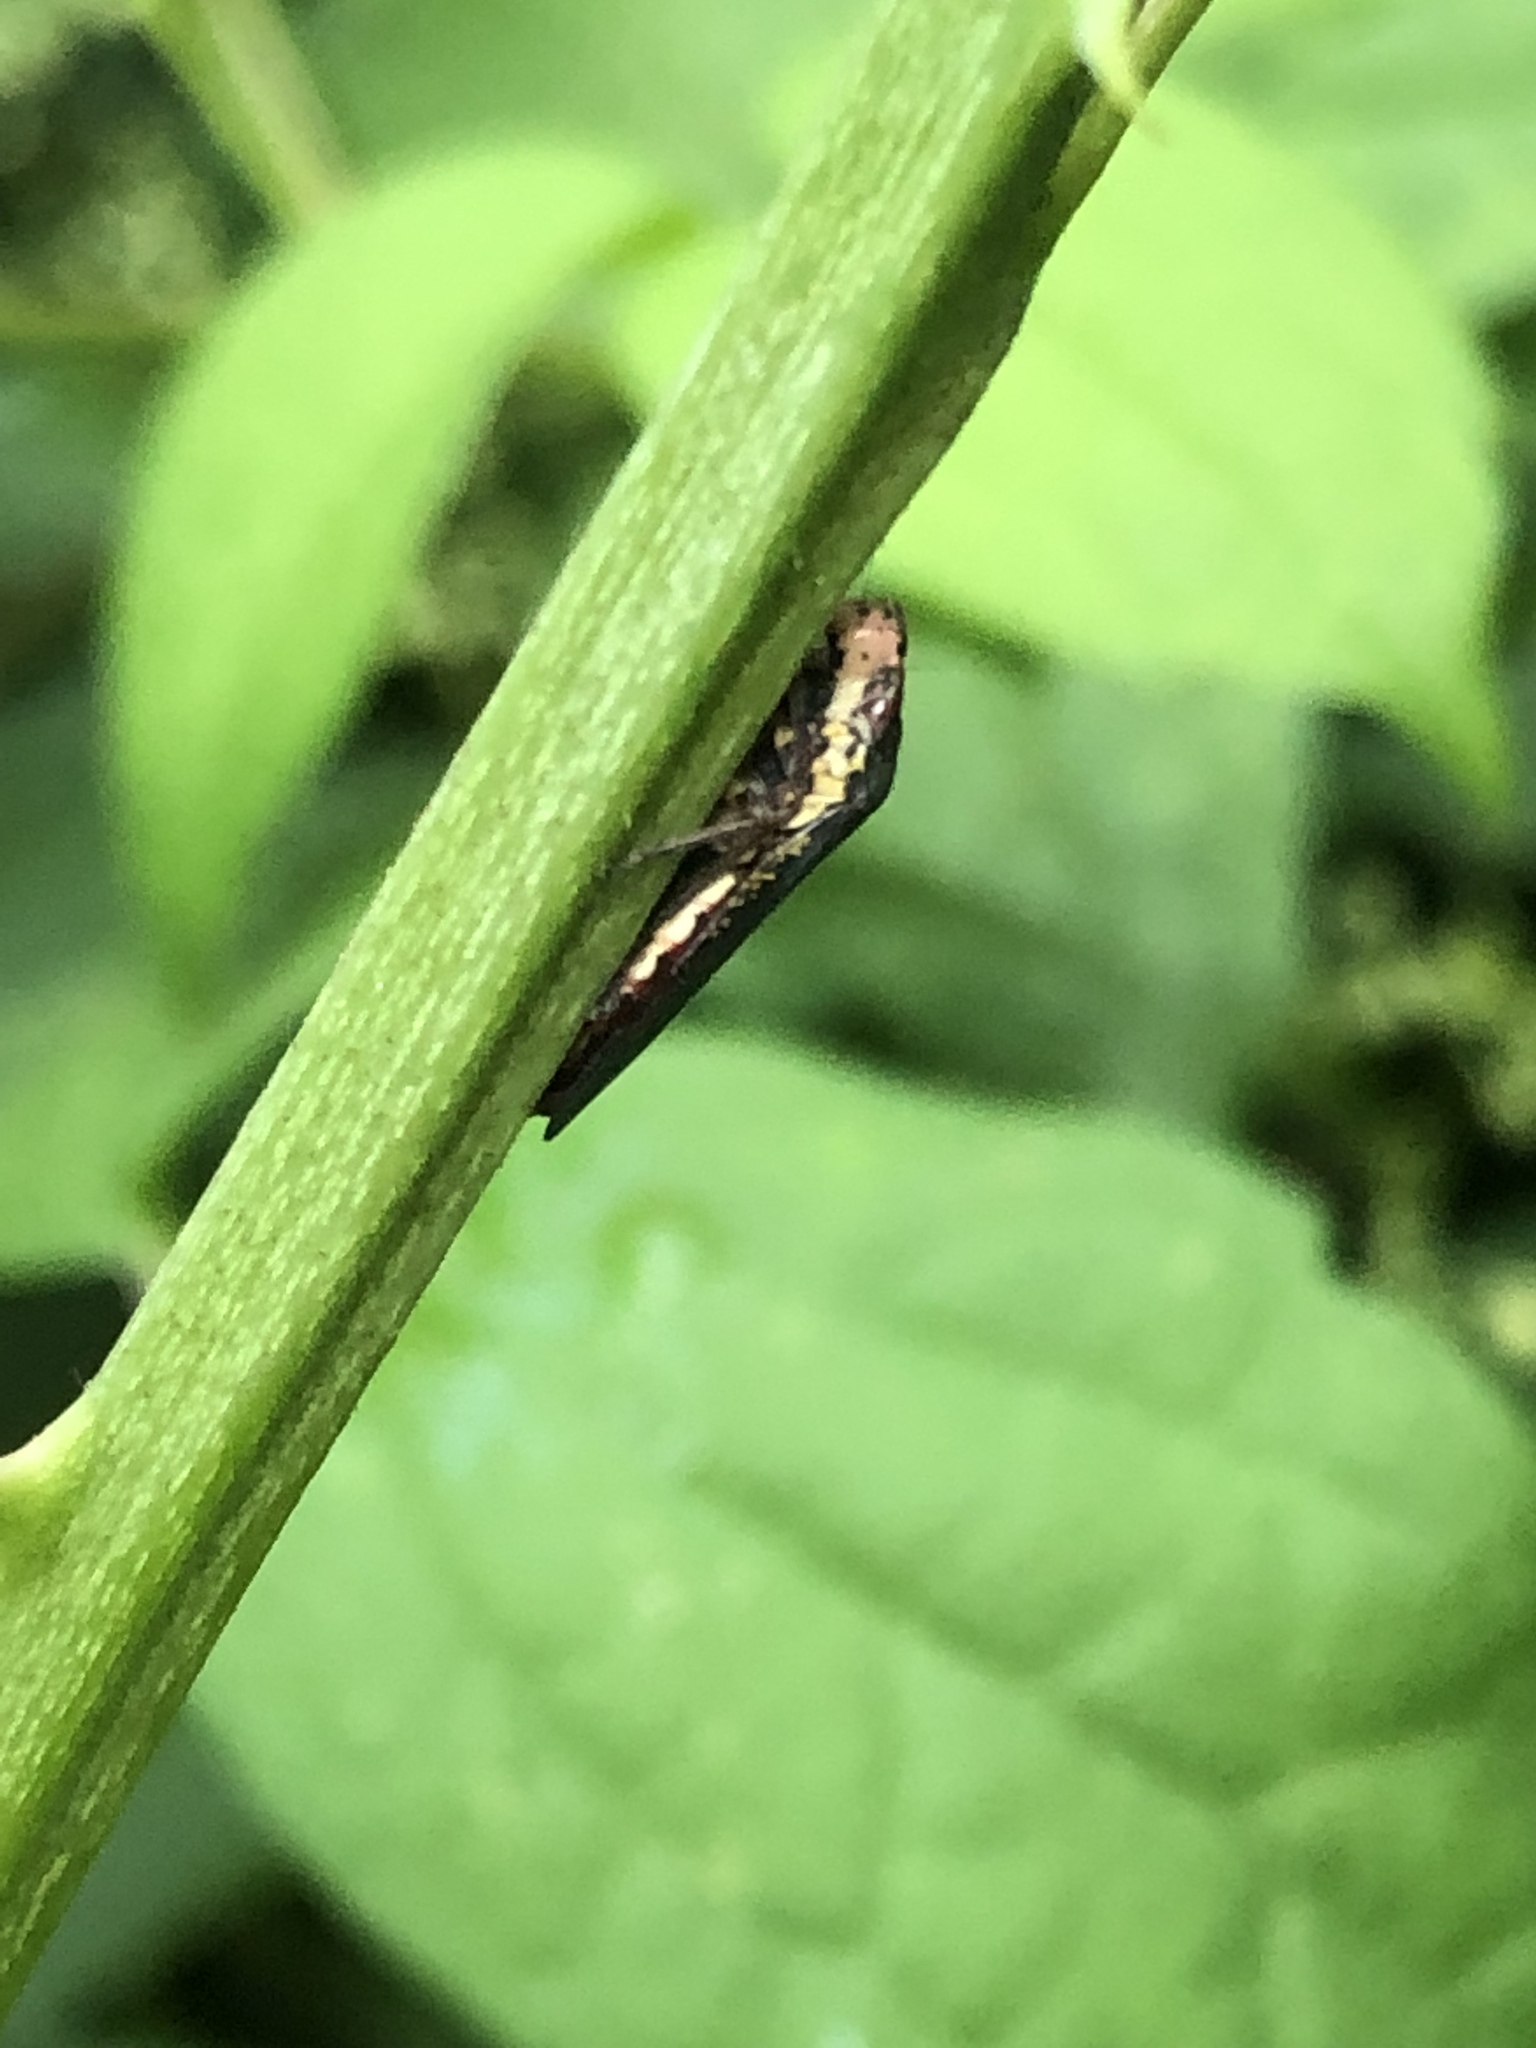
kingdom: Animalia
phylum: Arthropoda
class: Insecta
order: Hemiptera
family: Cicadellidae
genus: Paraulacizes
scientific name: Paraulacizes irrorata
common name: Speckled sharpshooter
